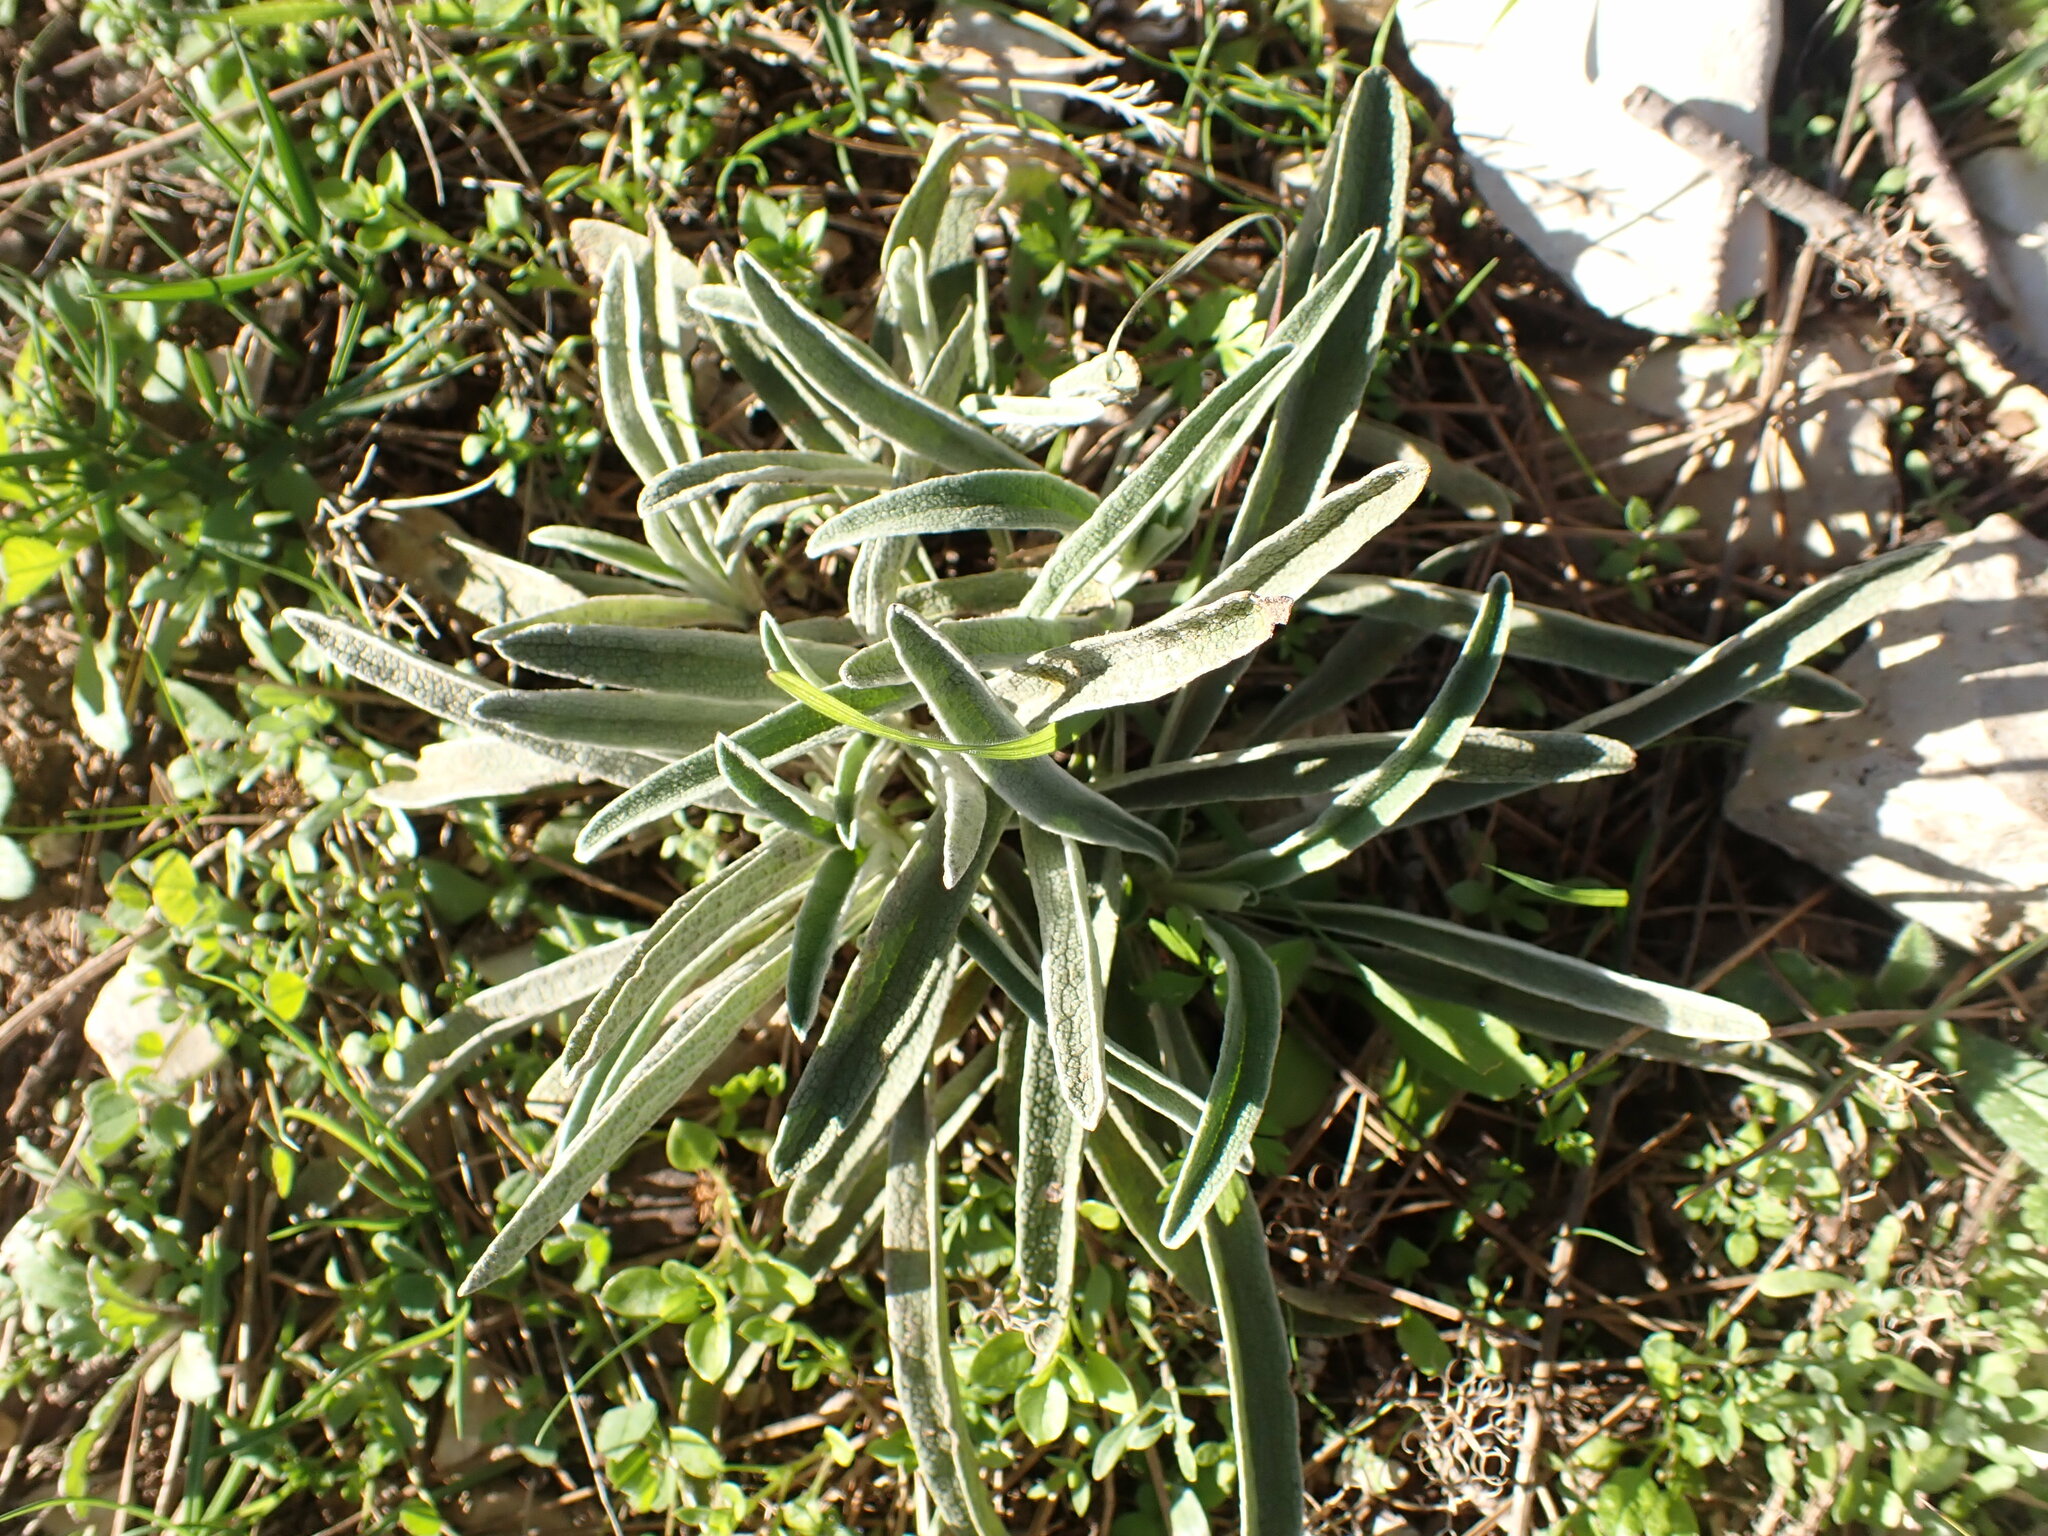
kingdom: Plantae
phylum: Tracheophyta
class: Magnoliopsida
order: Lamiales
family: Lamiaceae
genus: Phlomis
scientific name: Phlomis lychnitis
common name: Lampwickplant
